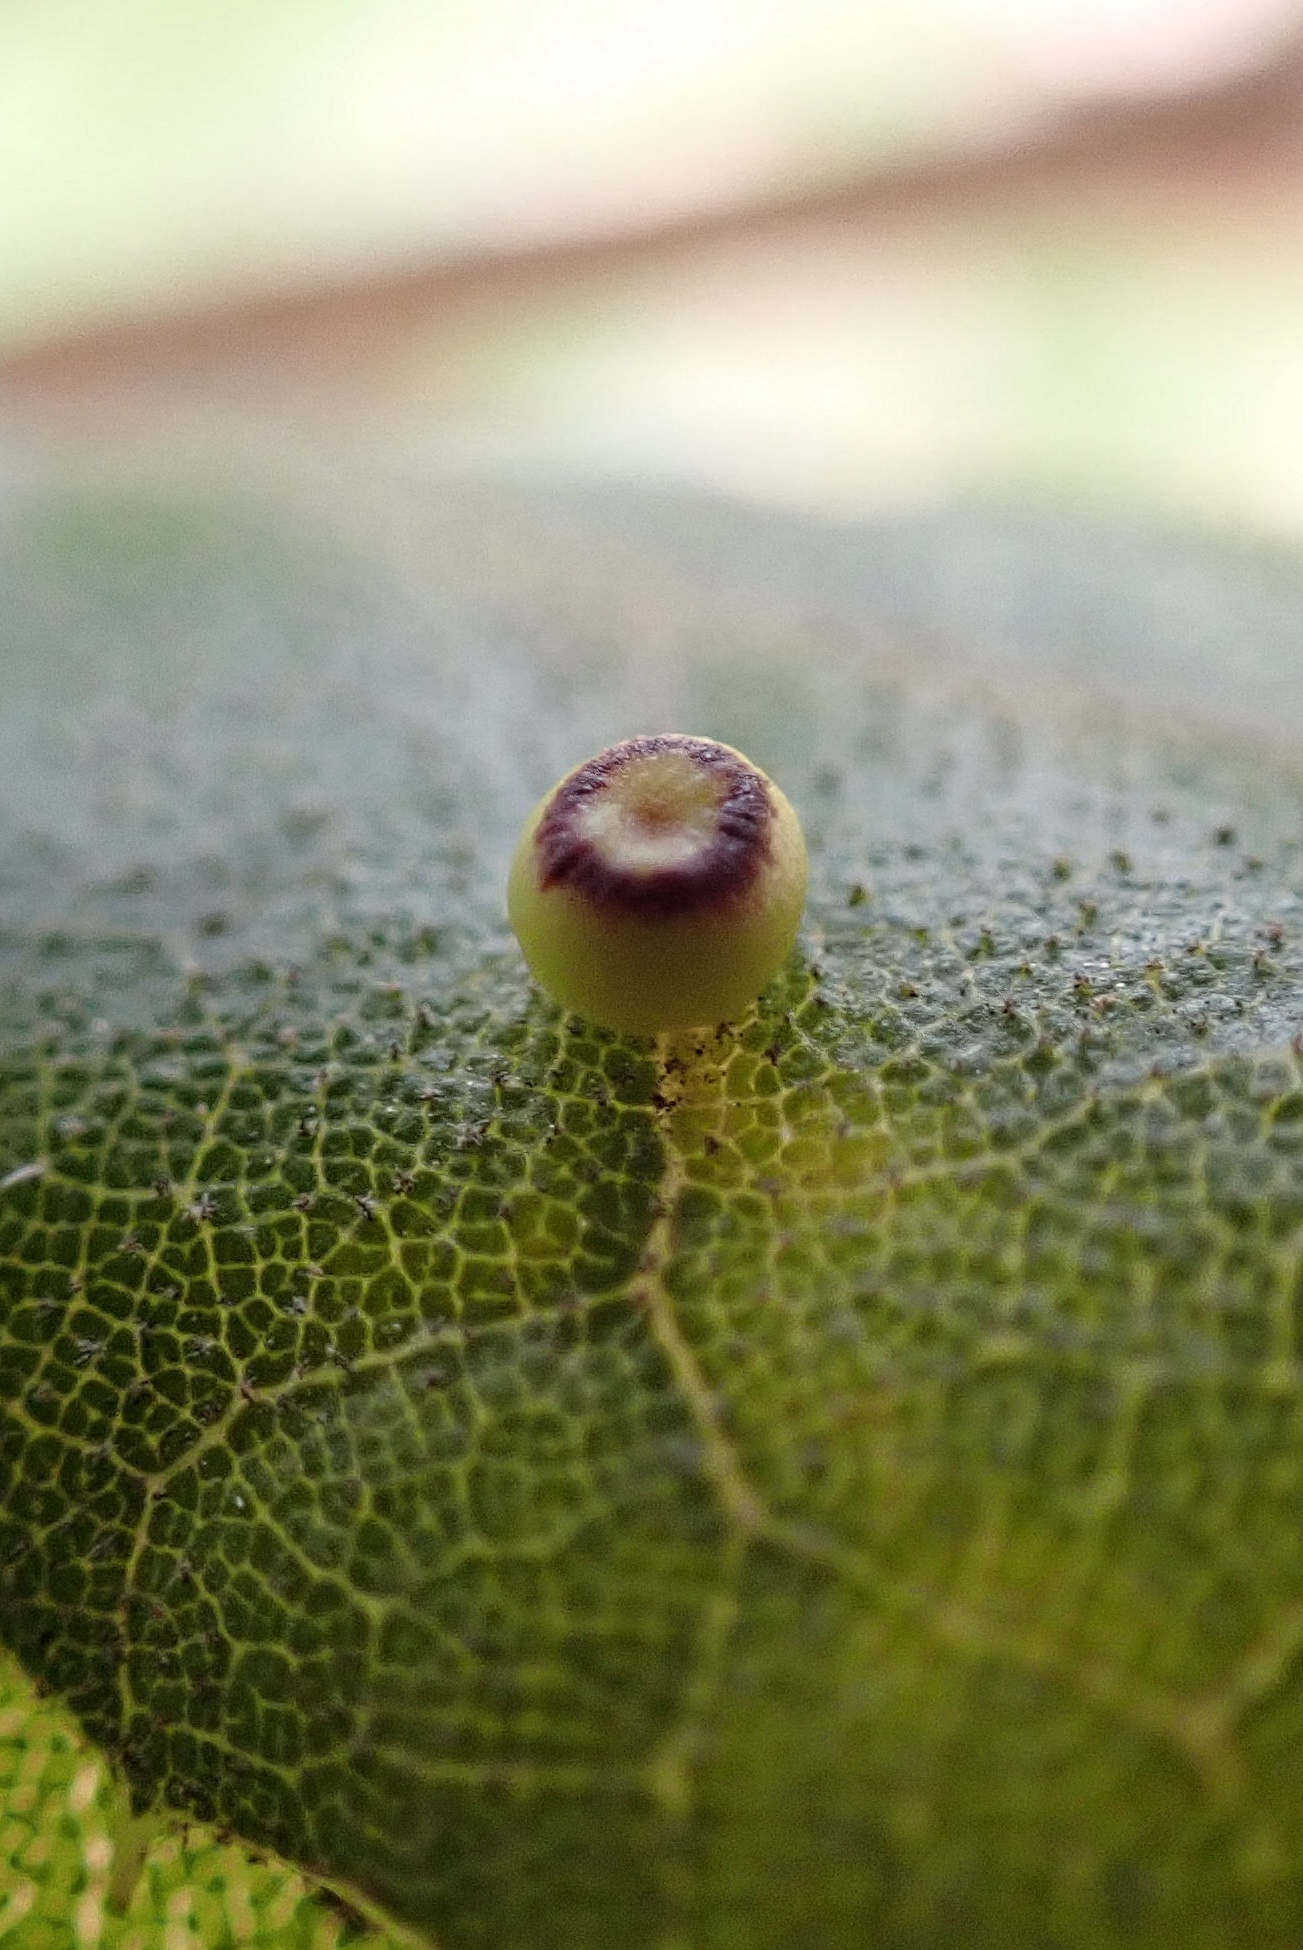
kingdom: Animalia
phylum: Arthropoda
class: Insecta
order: Hymenoptera
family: Cynipidae
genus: Dryocosmus
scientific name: Dryocosmus
